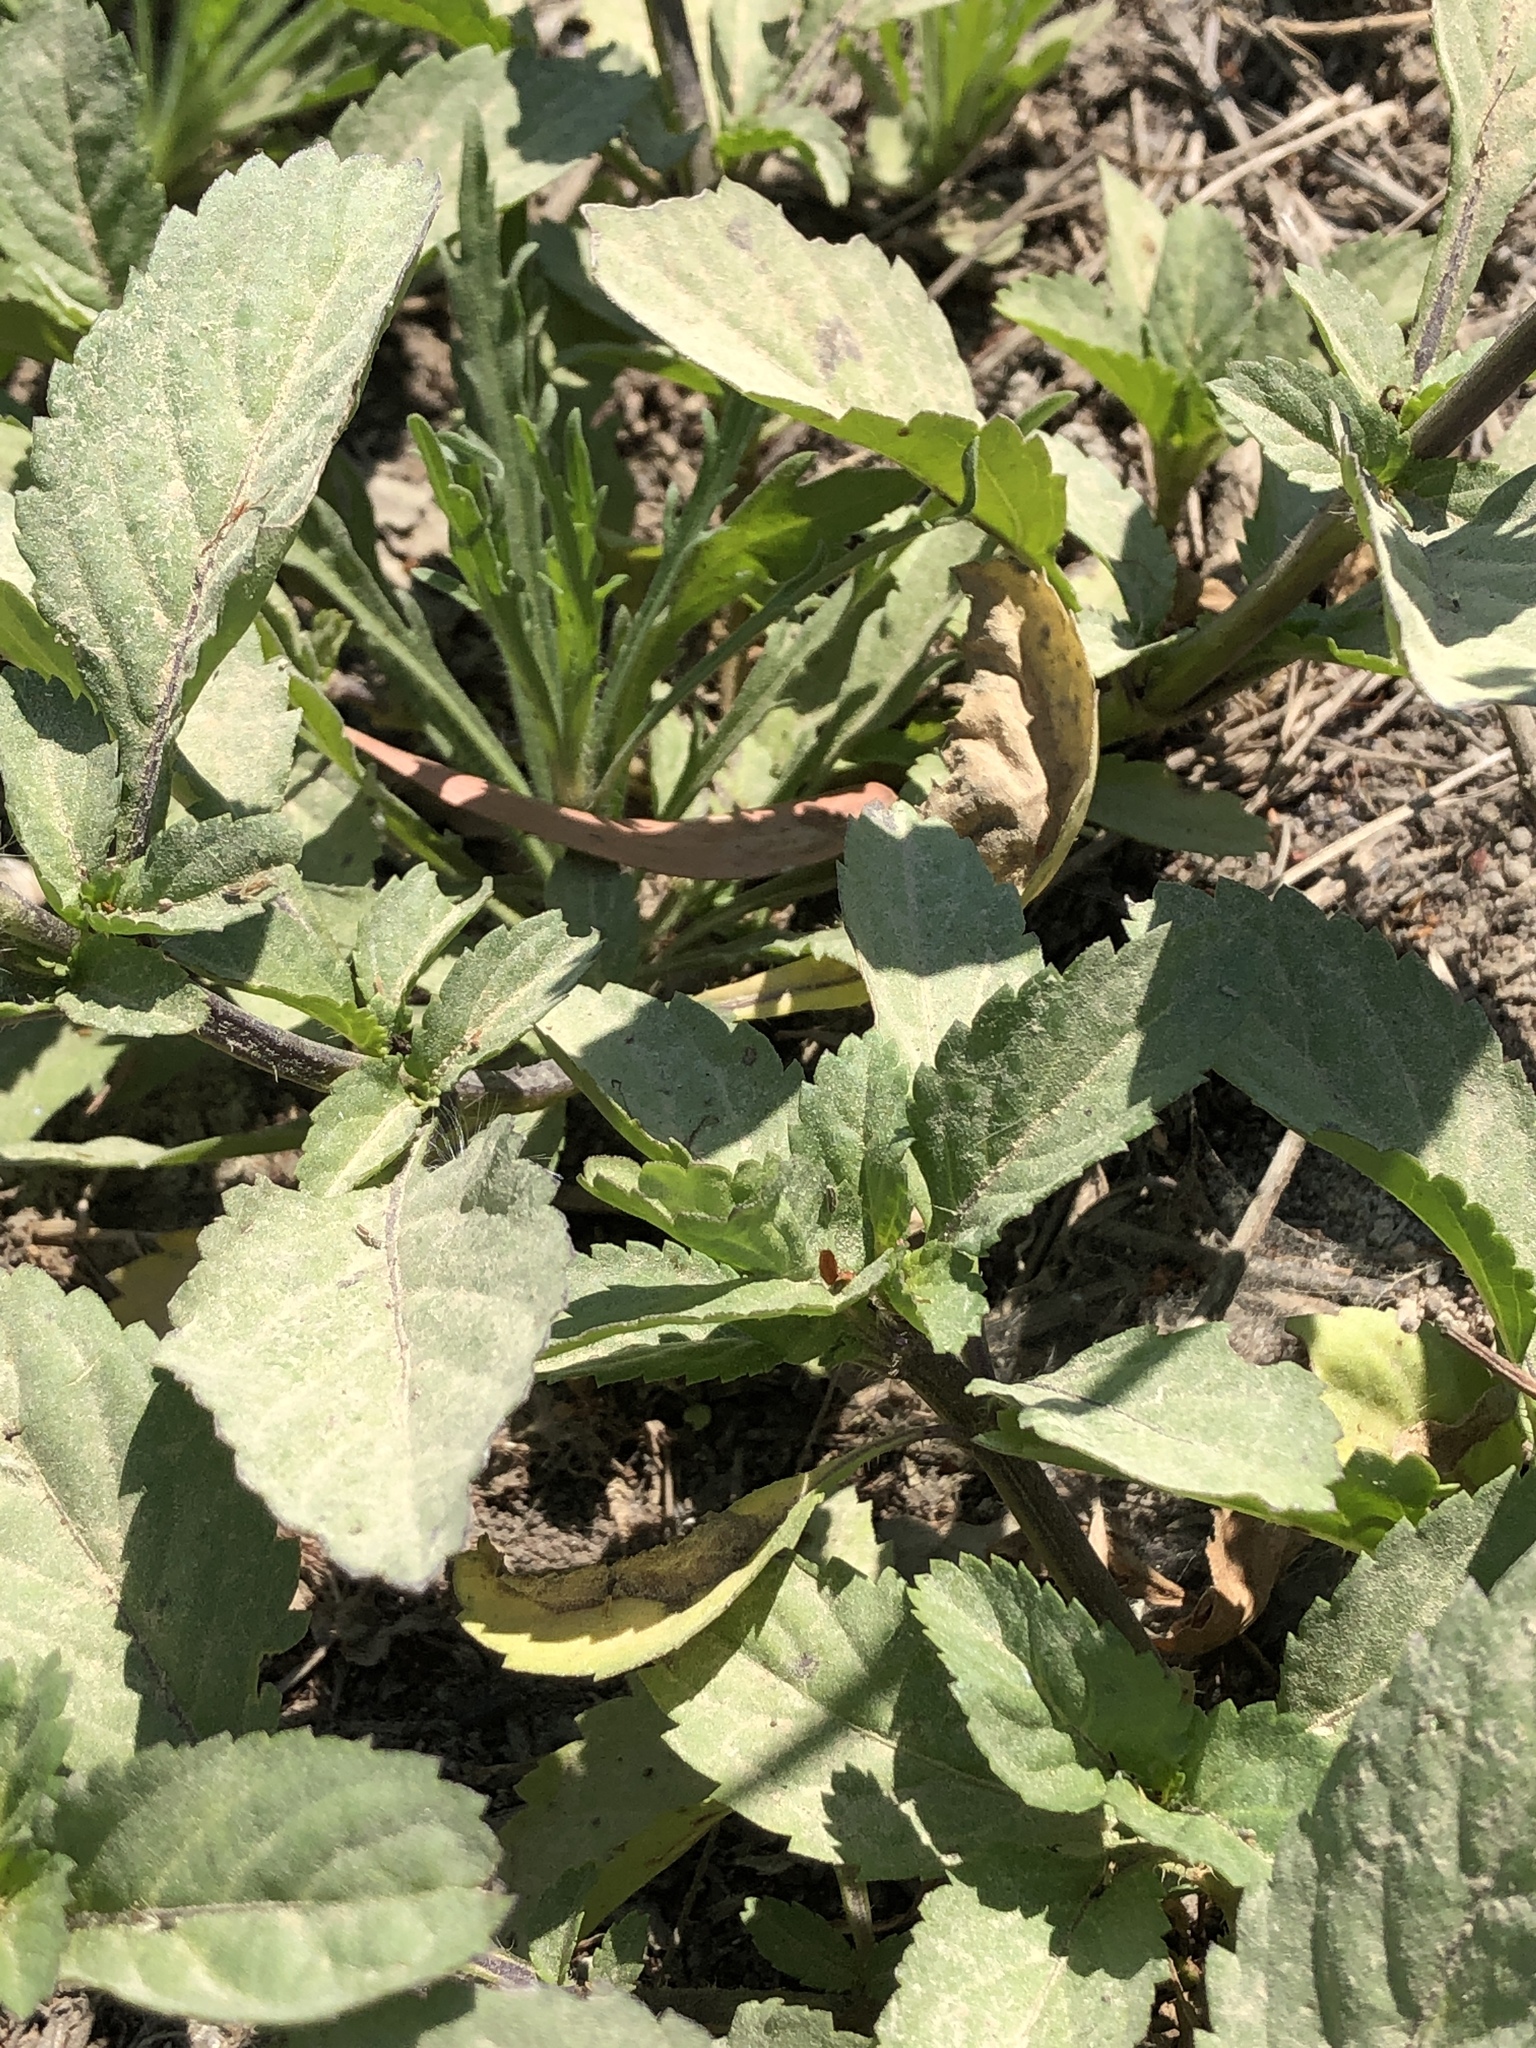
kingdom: Plantae
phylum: Tracheophyta
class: Magnoliopsida
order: Lamiales
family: Verbenaceae
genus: Stachytarpheta
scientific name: Stachytarpheta jamaicensis
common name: Light-blue snakeweed
